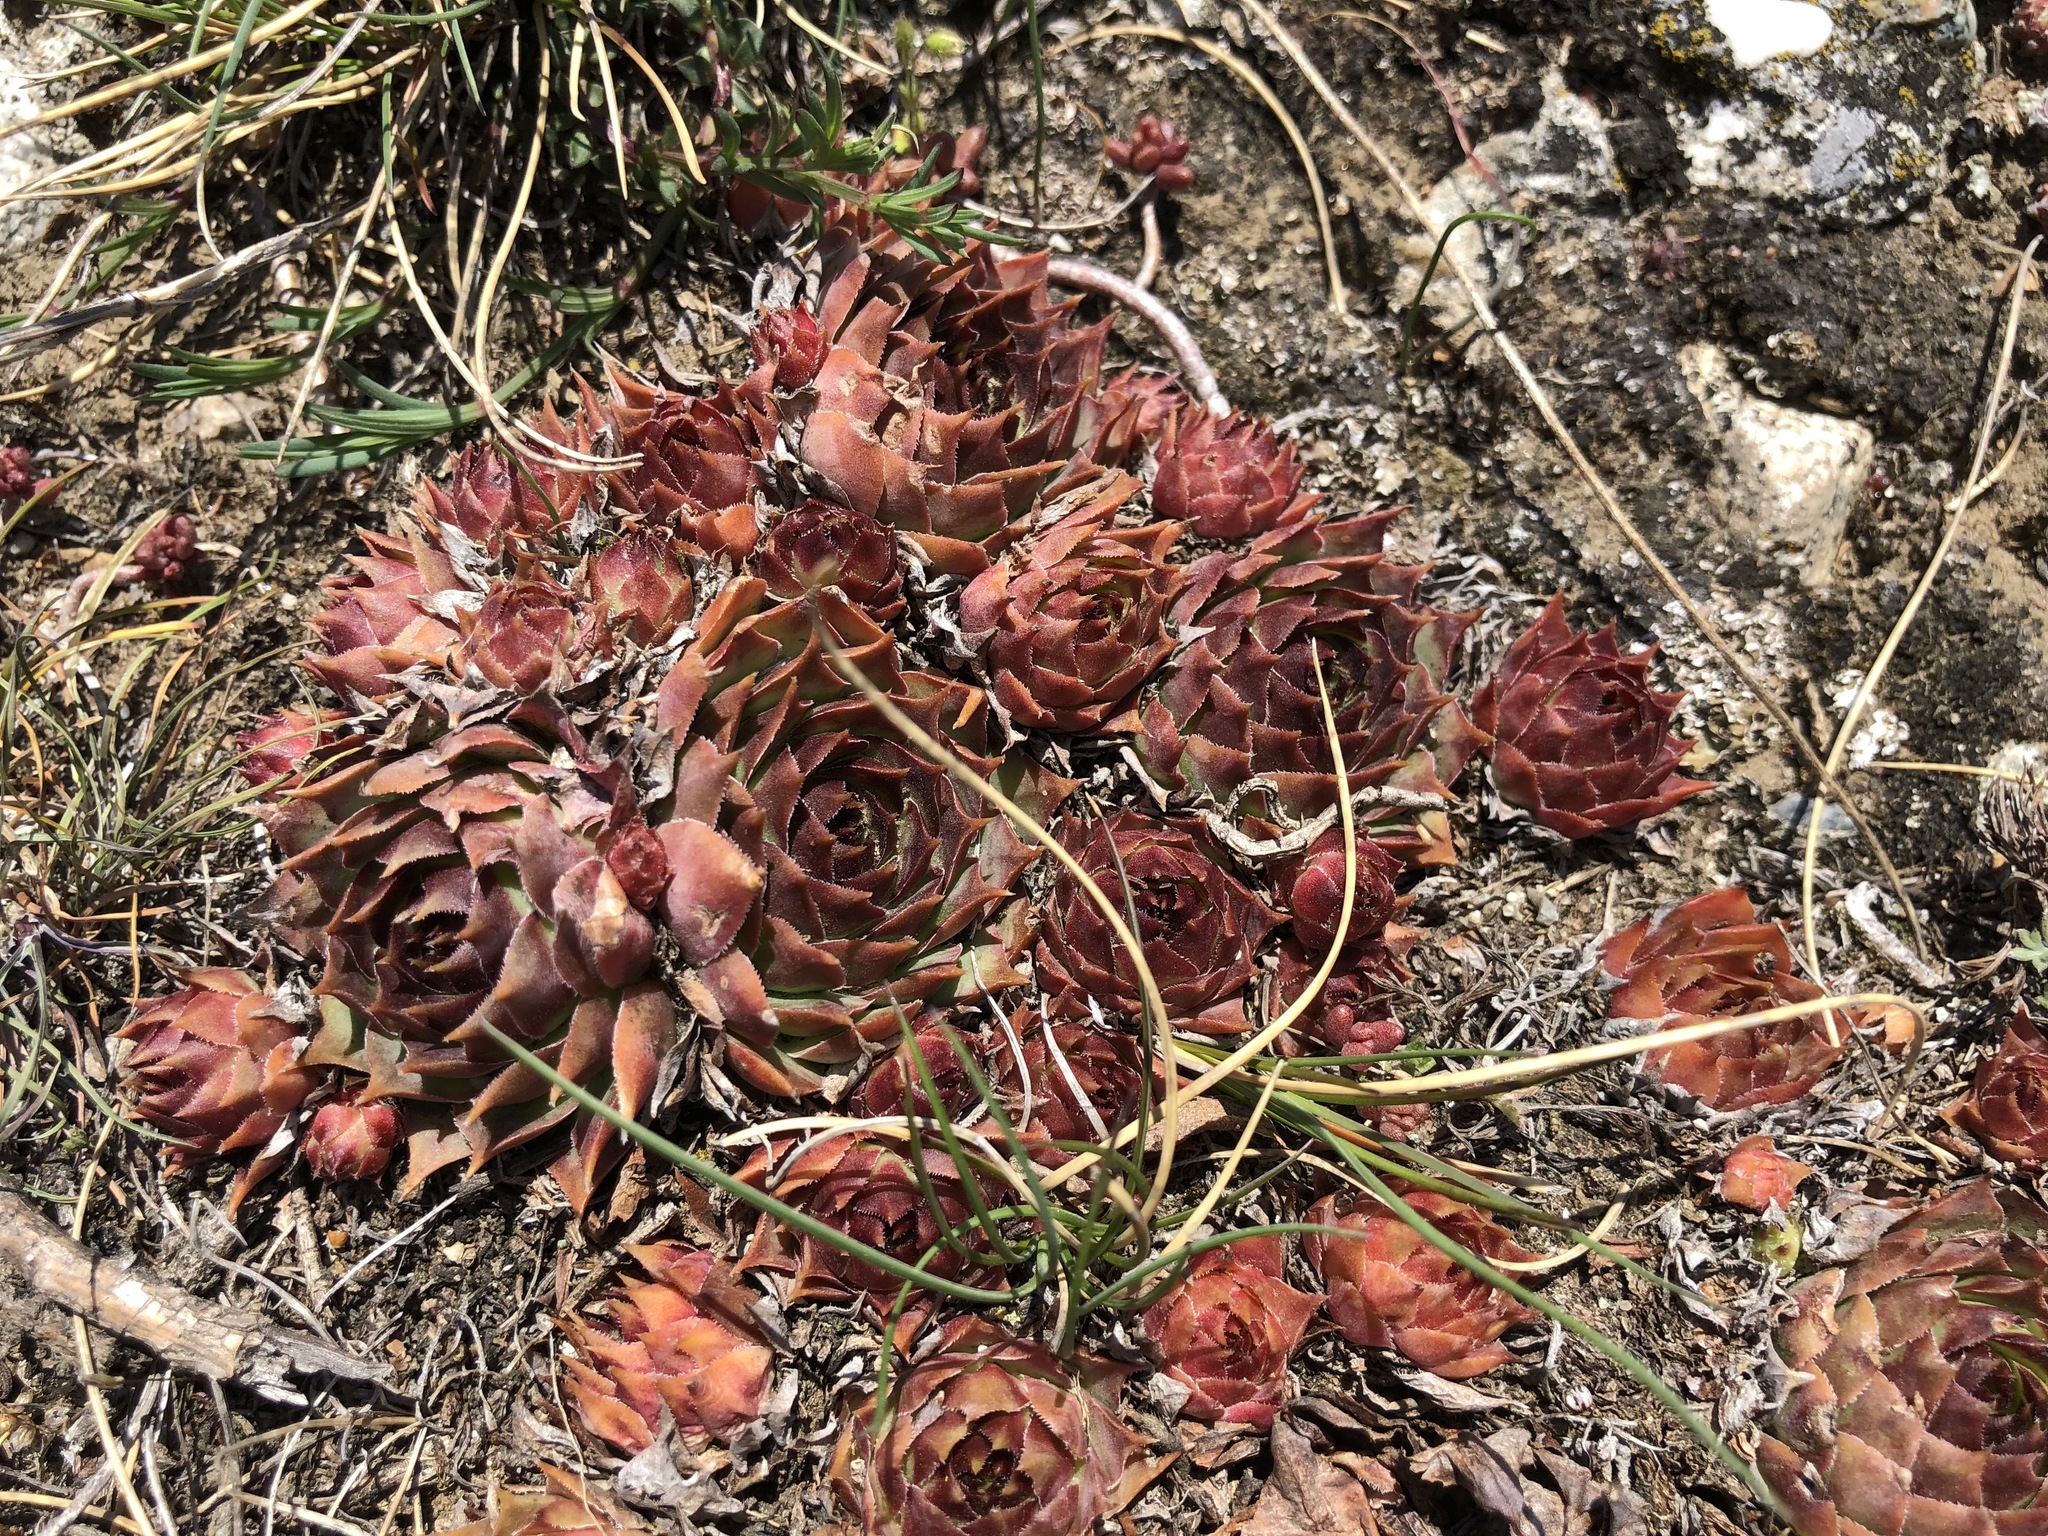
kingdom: Plantae
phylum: Tracheophyta
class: Magnoliopsida
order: Saxifragales
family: Crassulaceae
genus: Sempervivum
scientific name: Sempervivum tectorum
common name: House-leek
